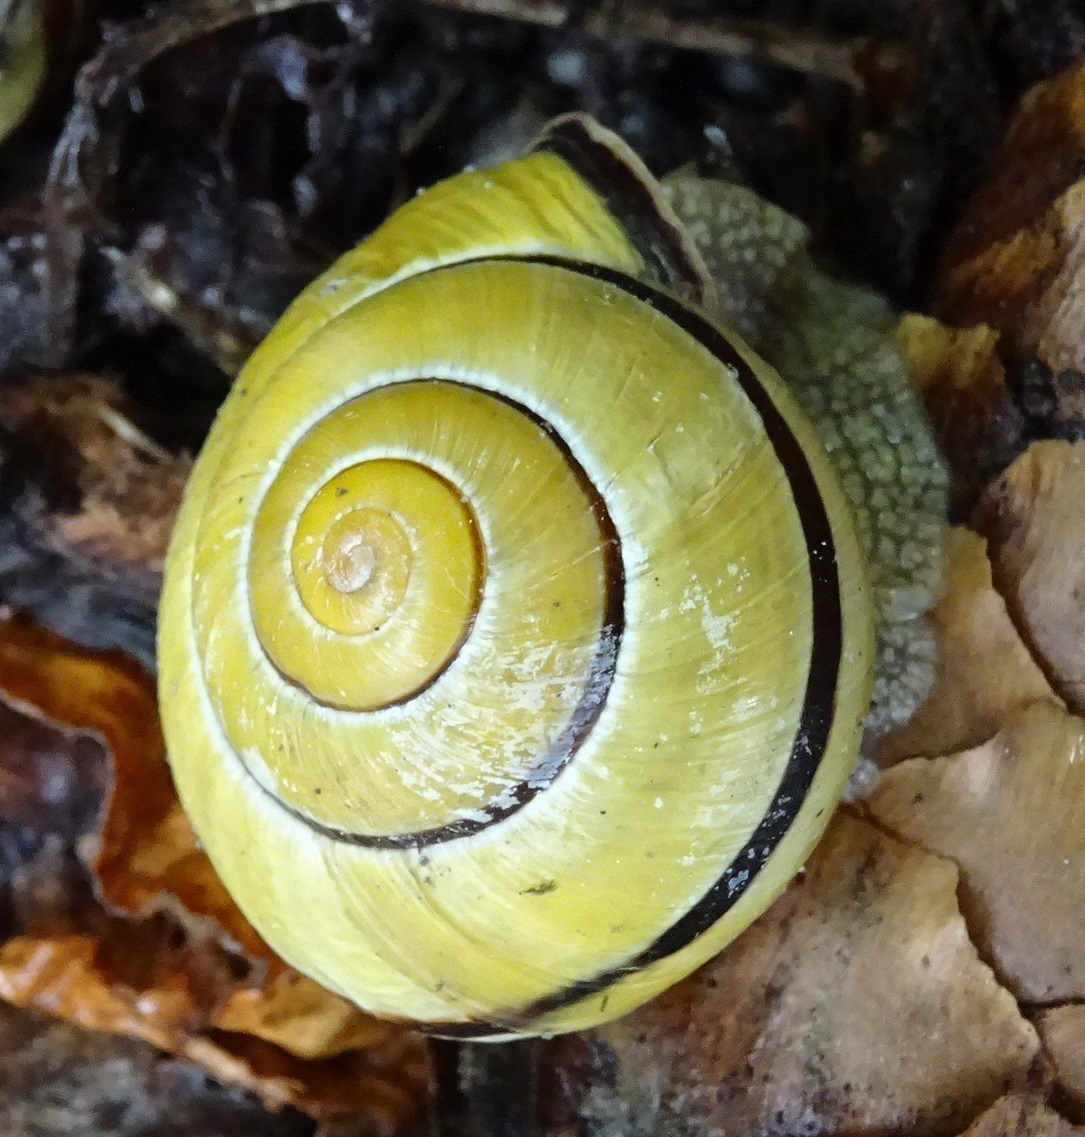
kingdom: Animalia
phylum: Mollusca
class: Gastropoda
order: Stylommatophora
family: Helicidae
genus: Cepaea
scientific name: Cepaea nemoralis
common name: Grovesnail
